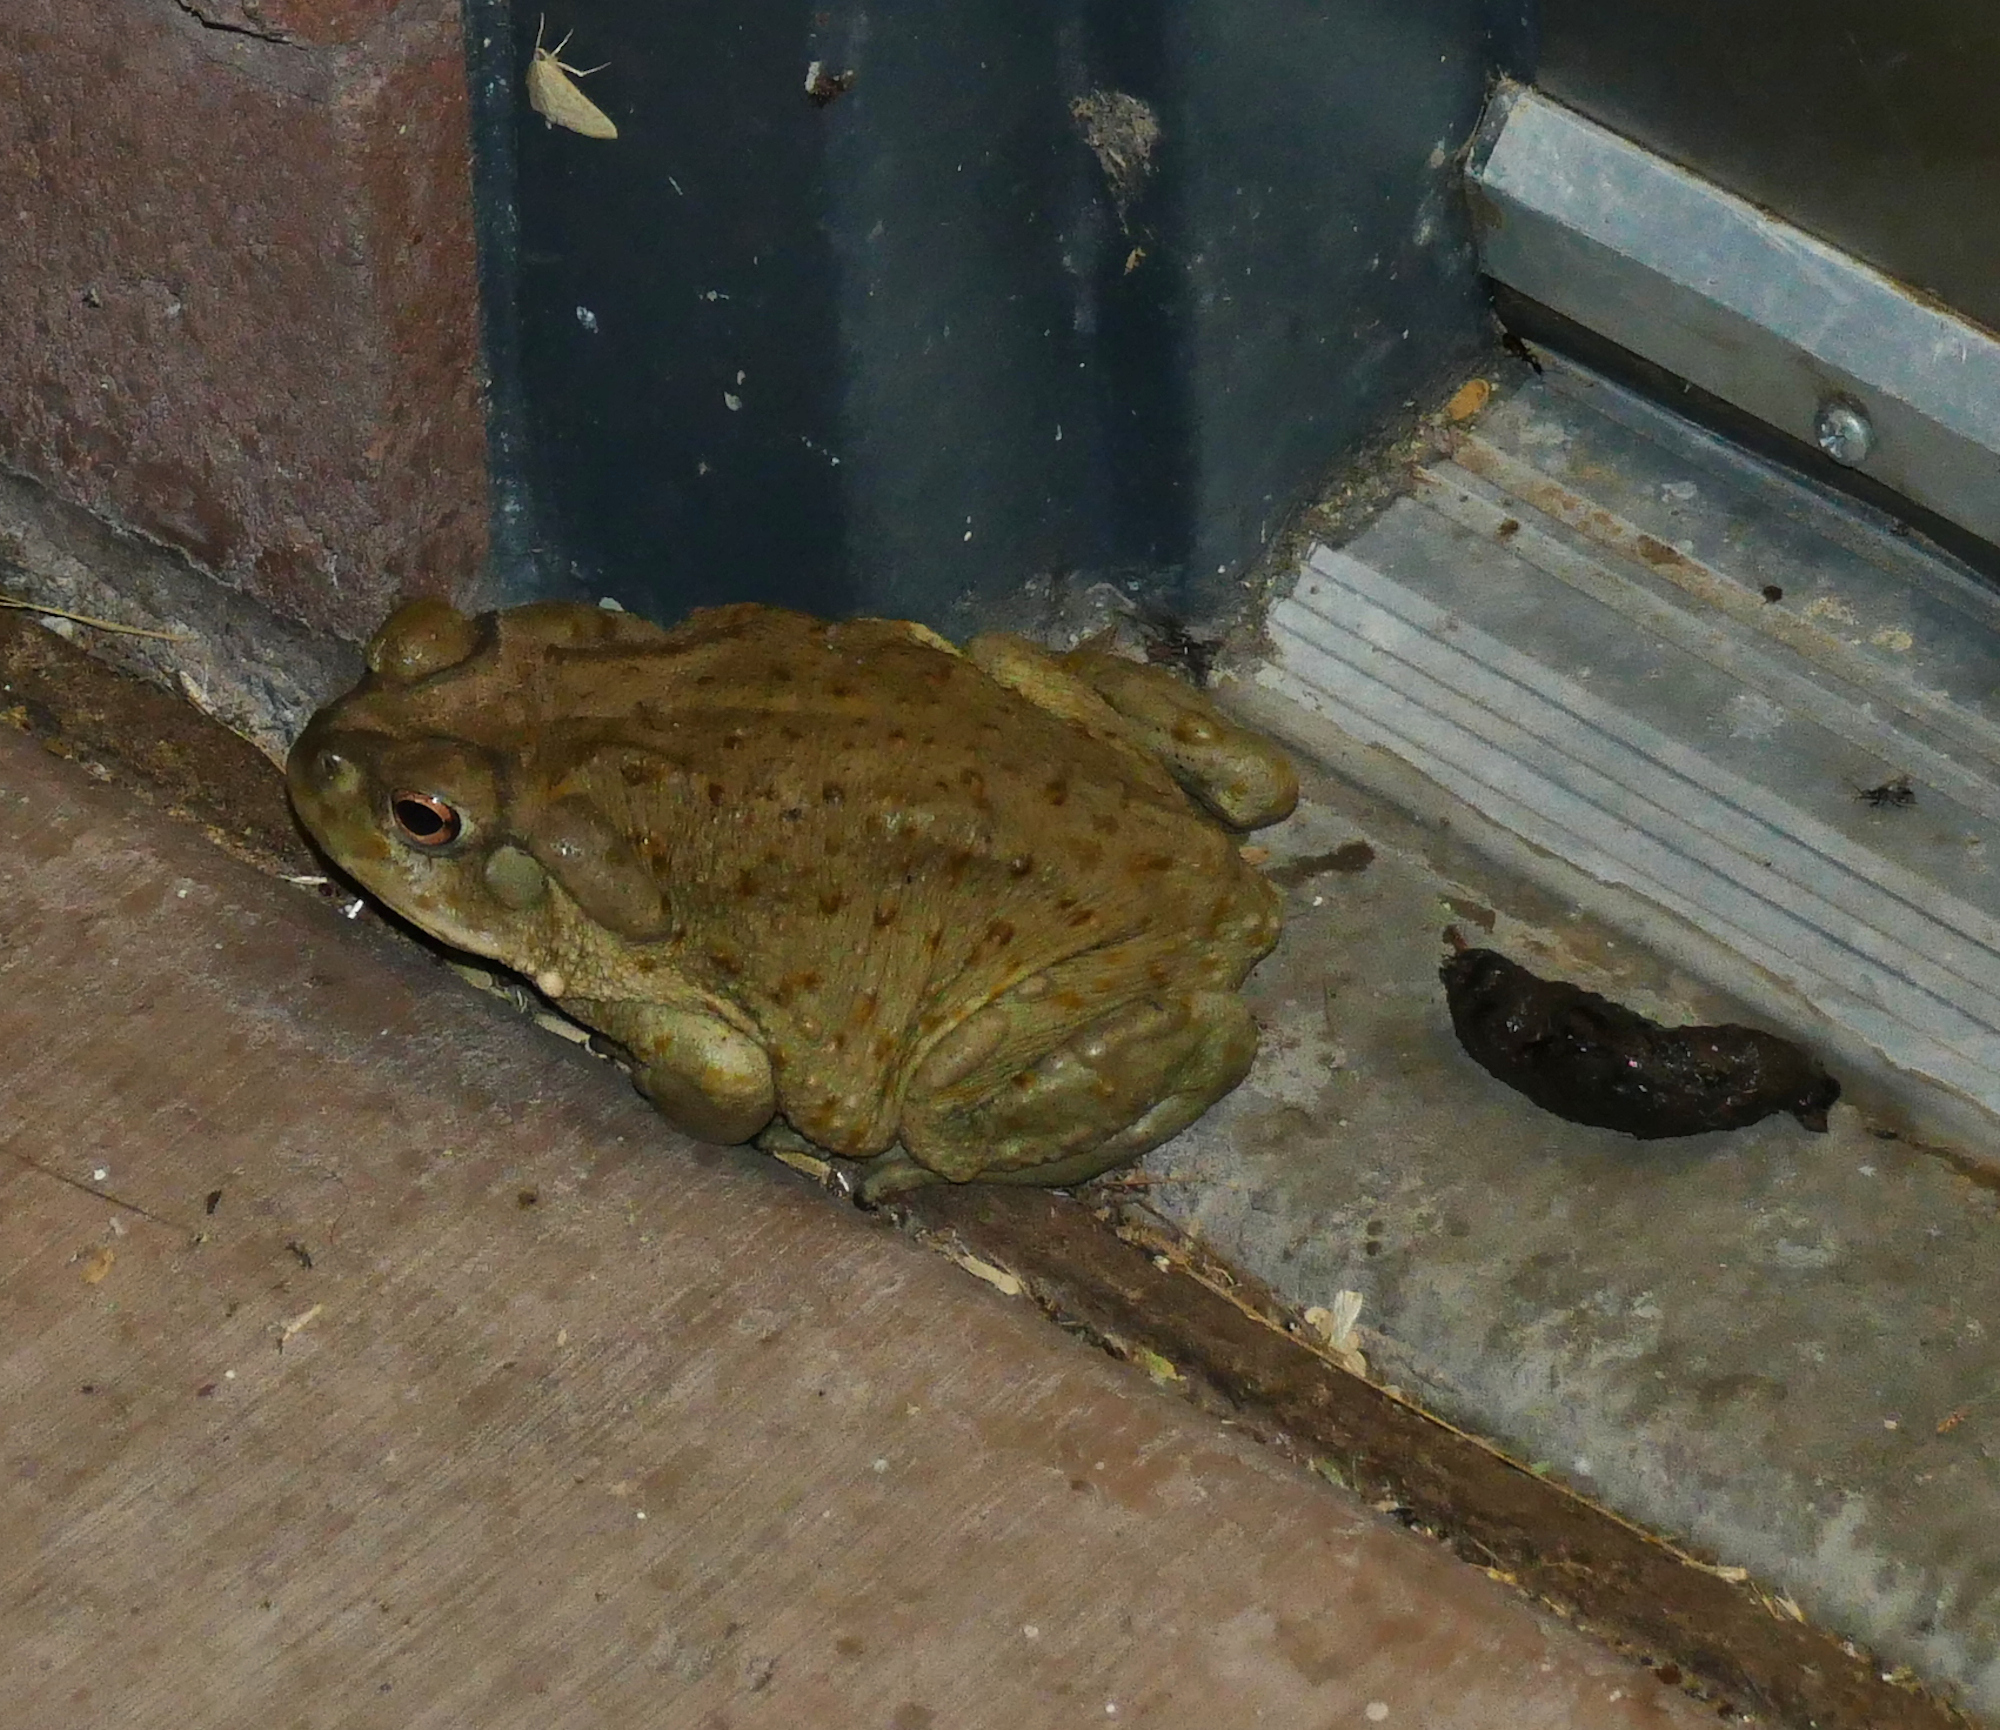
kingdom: Animalia
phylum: Chordata
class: Amphibia
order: Anura
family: Bufonidae
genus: Incilius
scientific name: Incilius alvarius
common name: Sonoran desert toad
